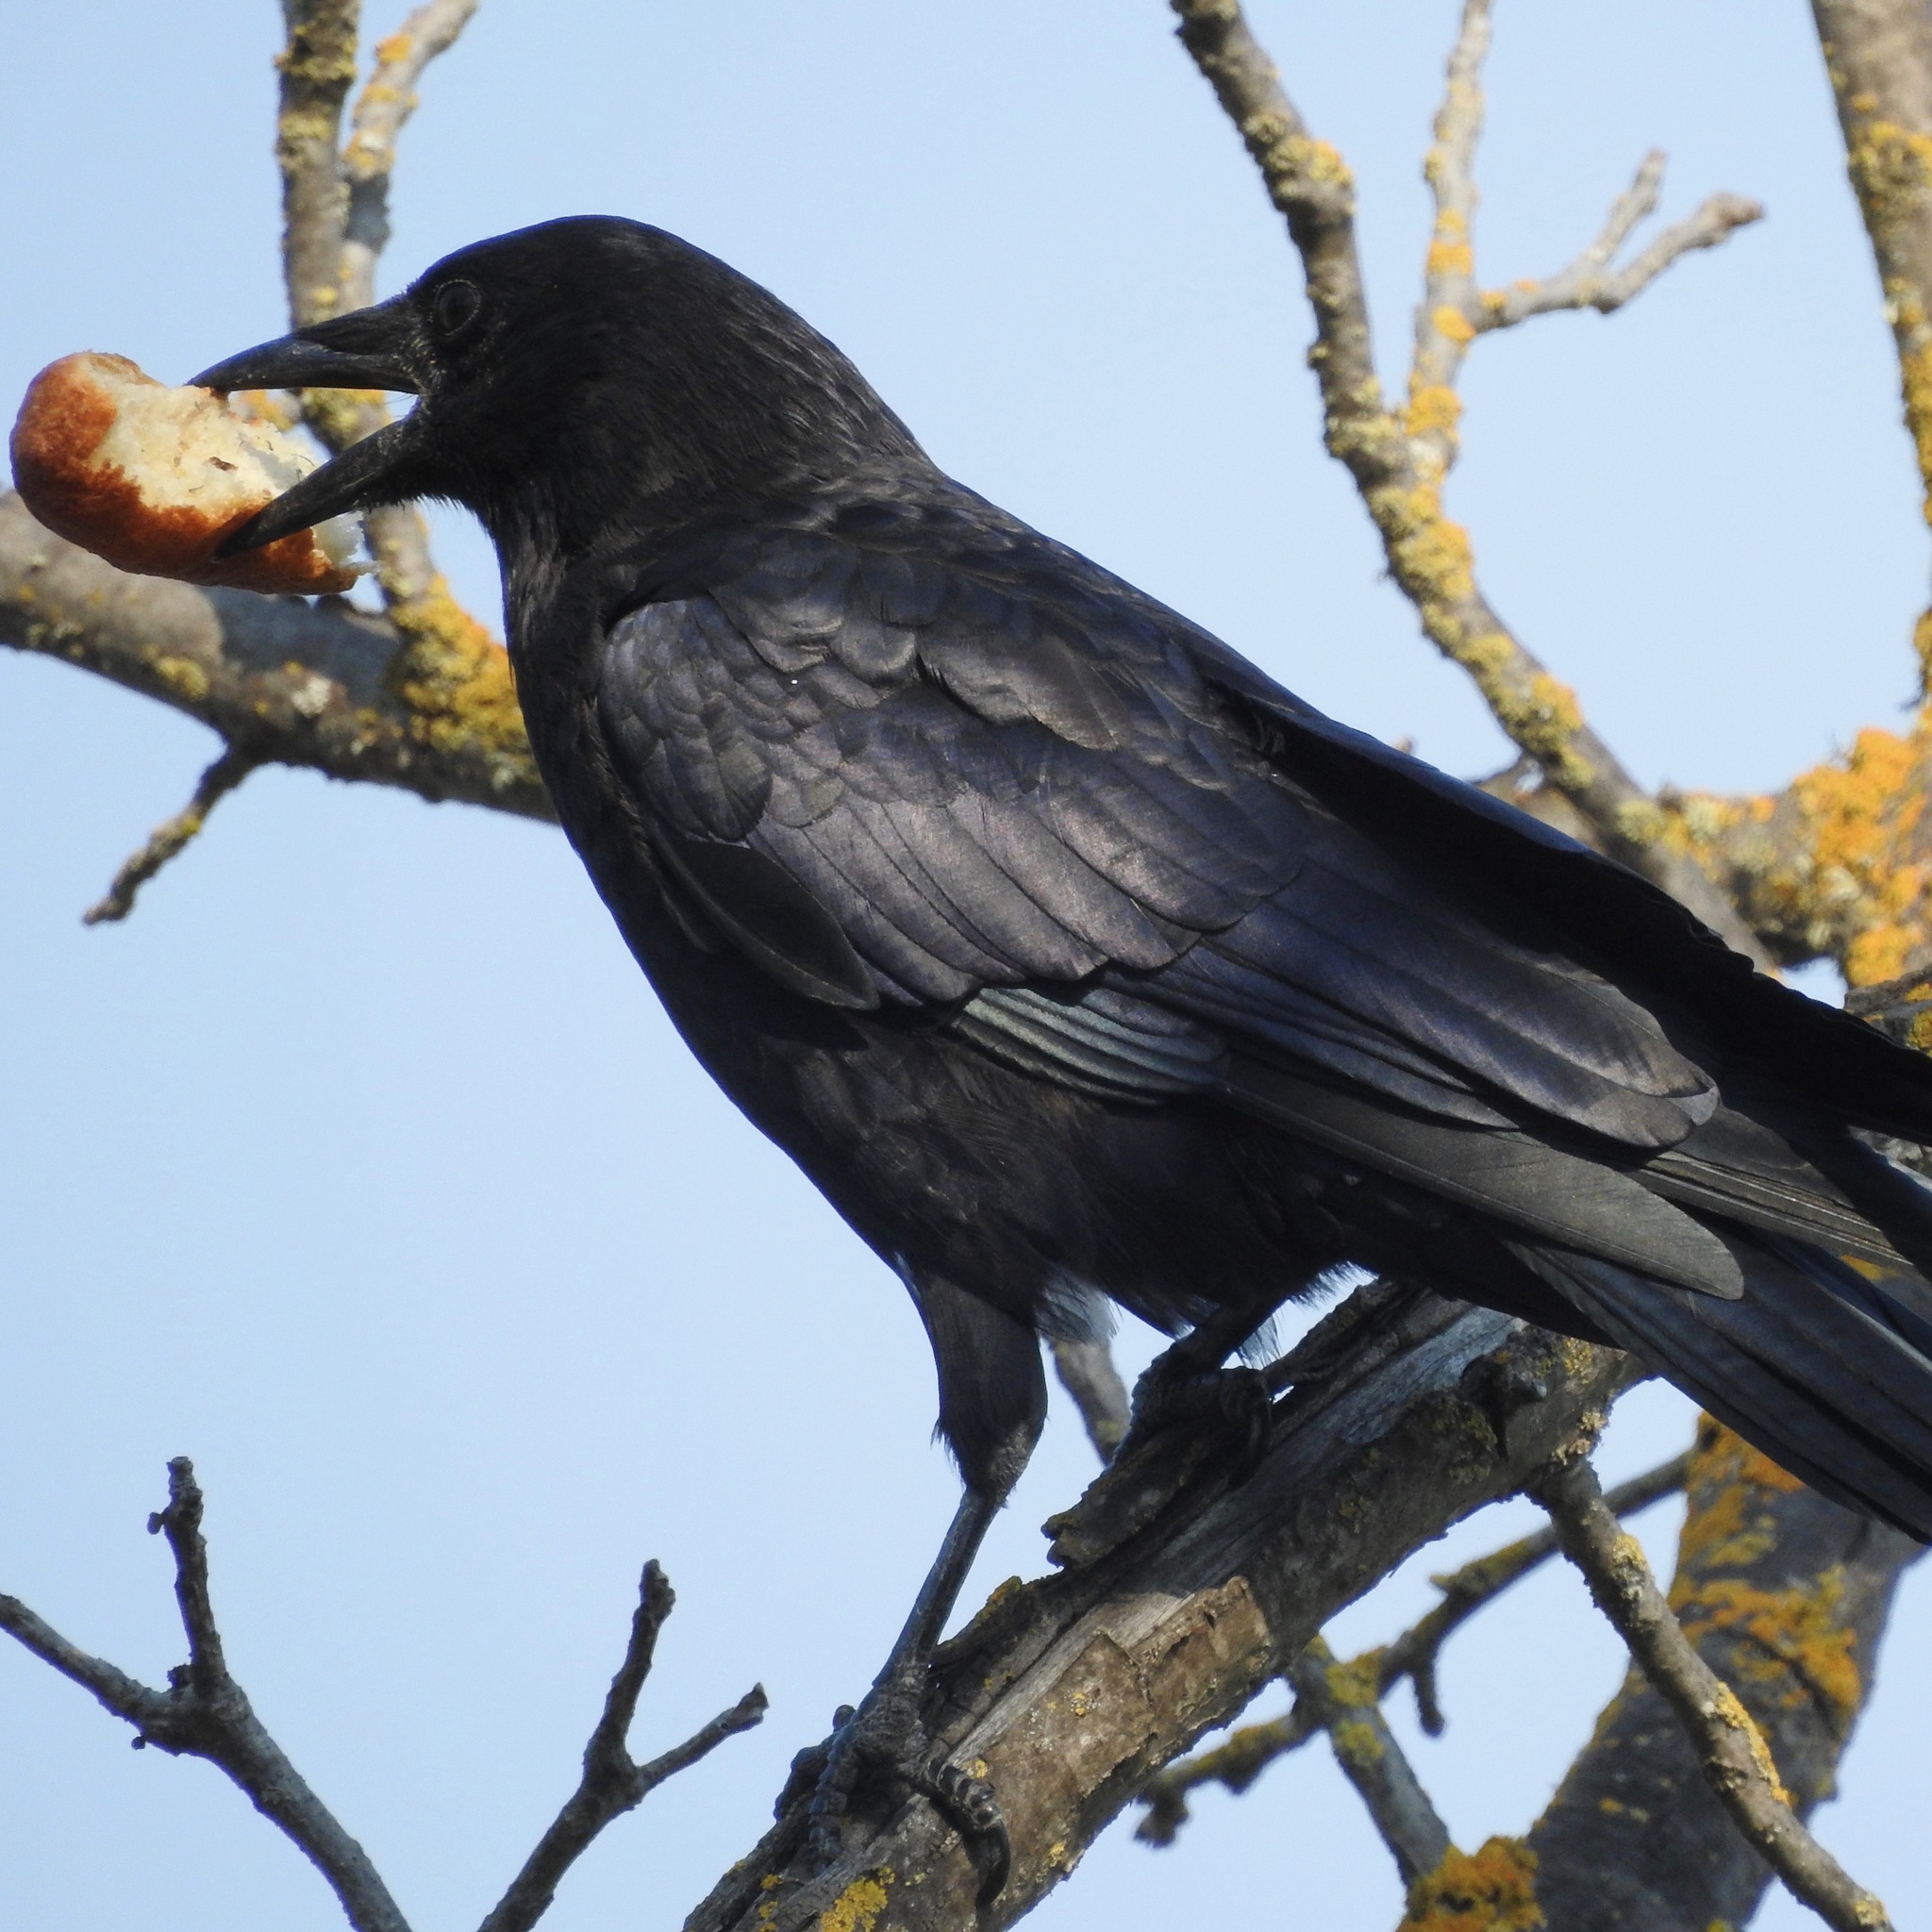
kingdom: Animalia
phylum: Chordata
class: Aves
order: Passeriformes
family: Corvidae
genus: Corvus
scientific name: Corvus brachyrhynchos
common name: American crow
